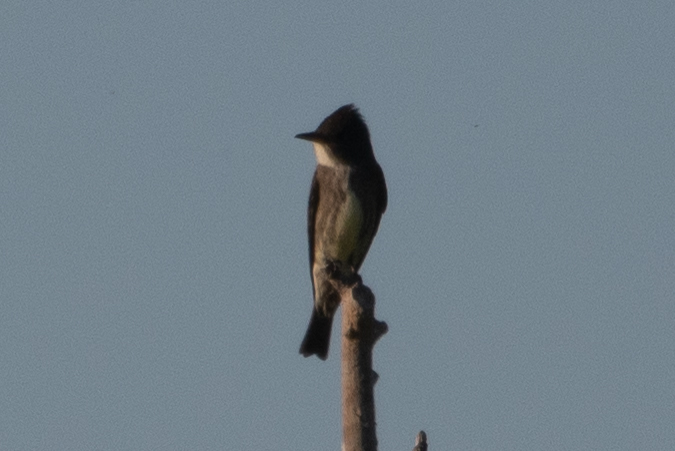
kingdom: Animalia
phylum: Chordata
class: Aves
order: Passeriformes
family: Tyrannidae
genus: Contopus
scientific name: Contopus cooperi
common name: Olive-sided flycatcher
